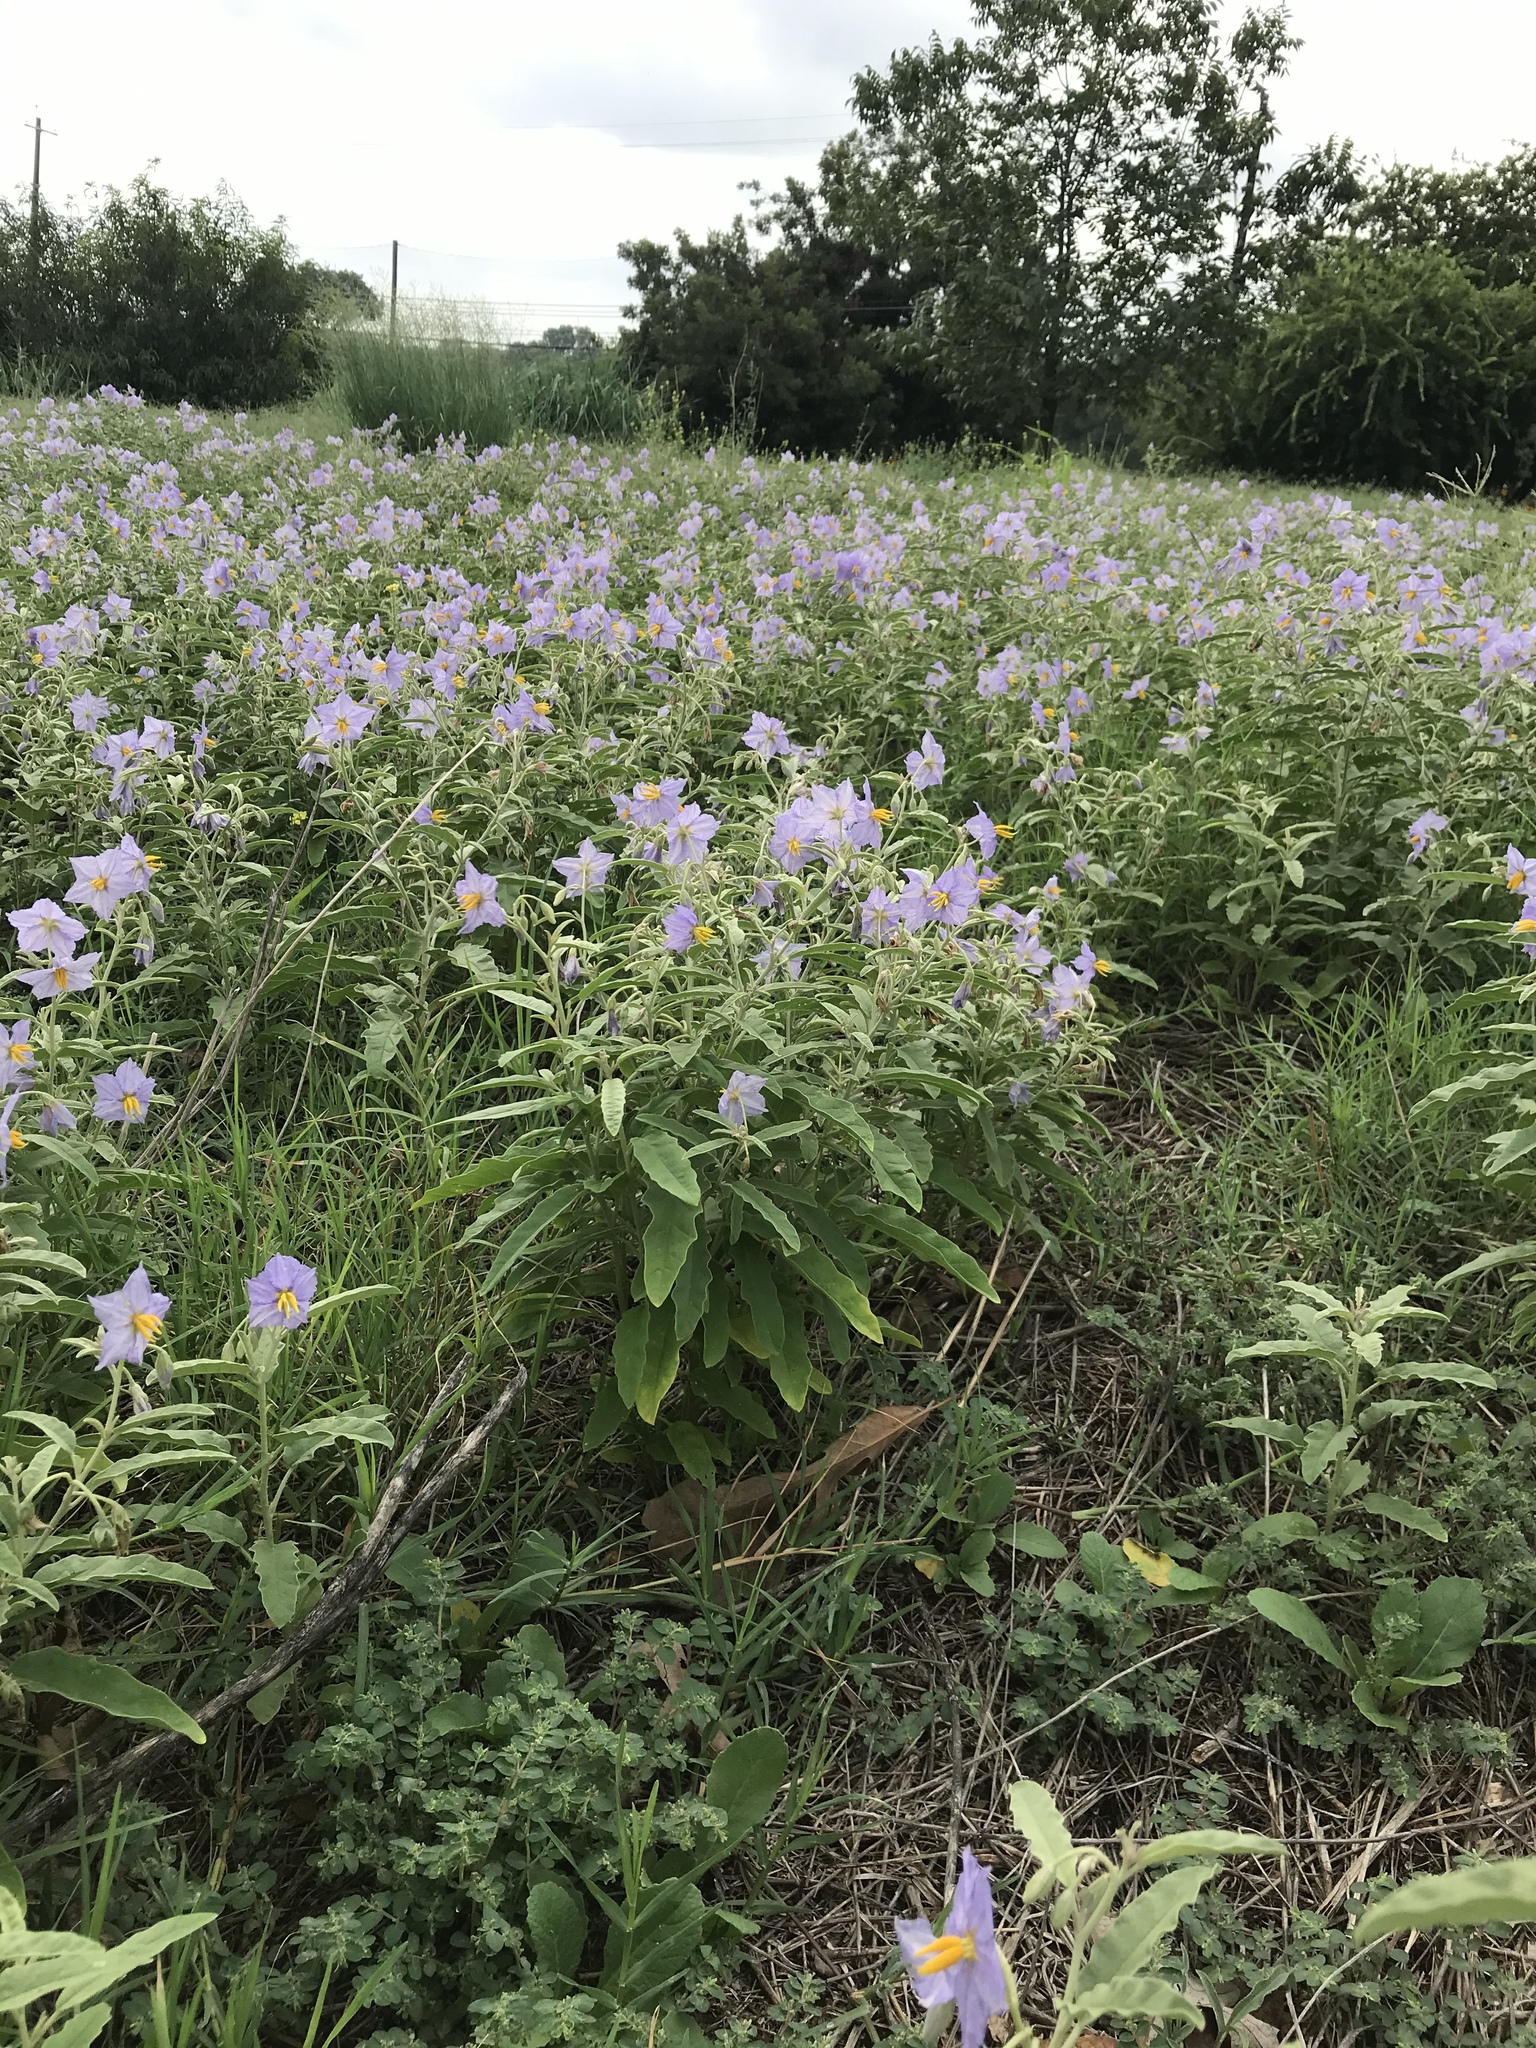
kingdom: Plantae
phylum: Tracheophyta
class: Magnoliopsida
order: Solanales
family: Solanaceae
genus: Solanum
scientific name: Solanum elaeagnifolium
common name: Silverleaf nightshade
